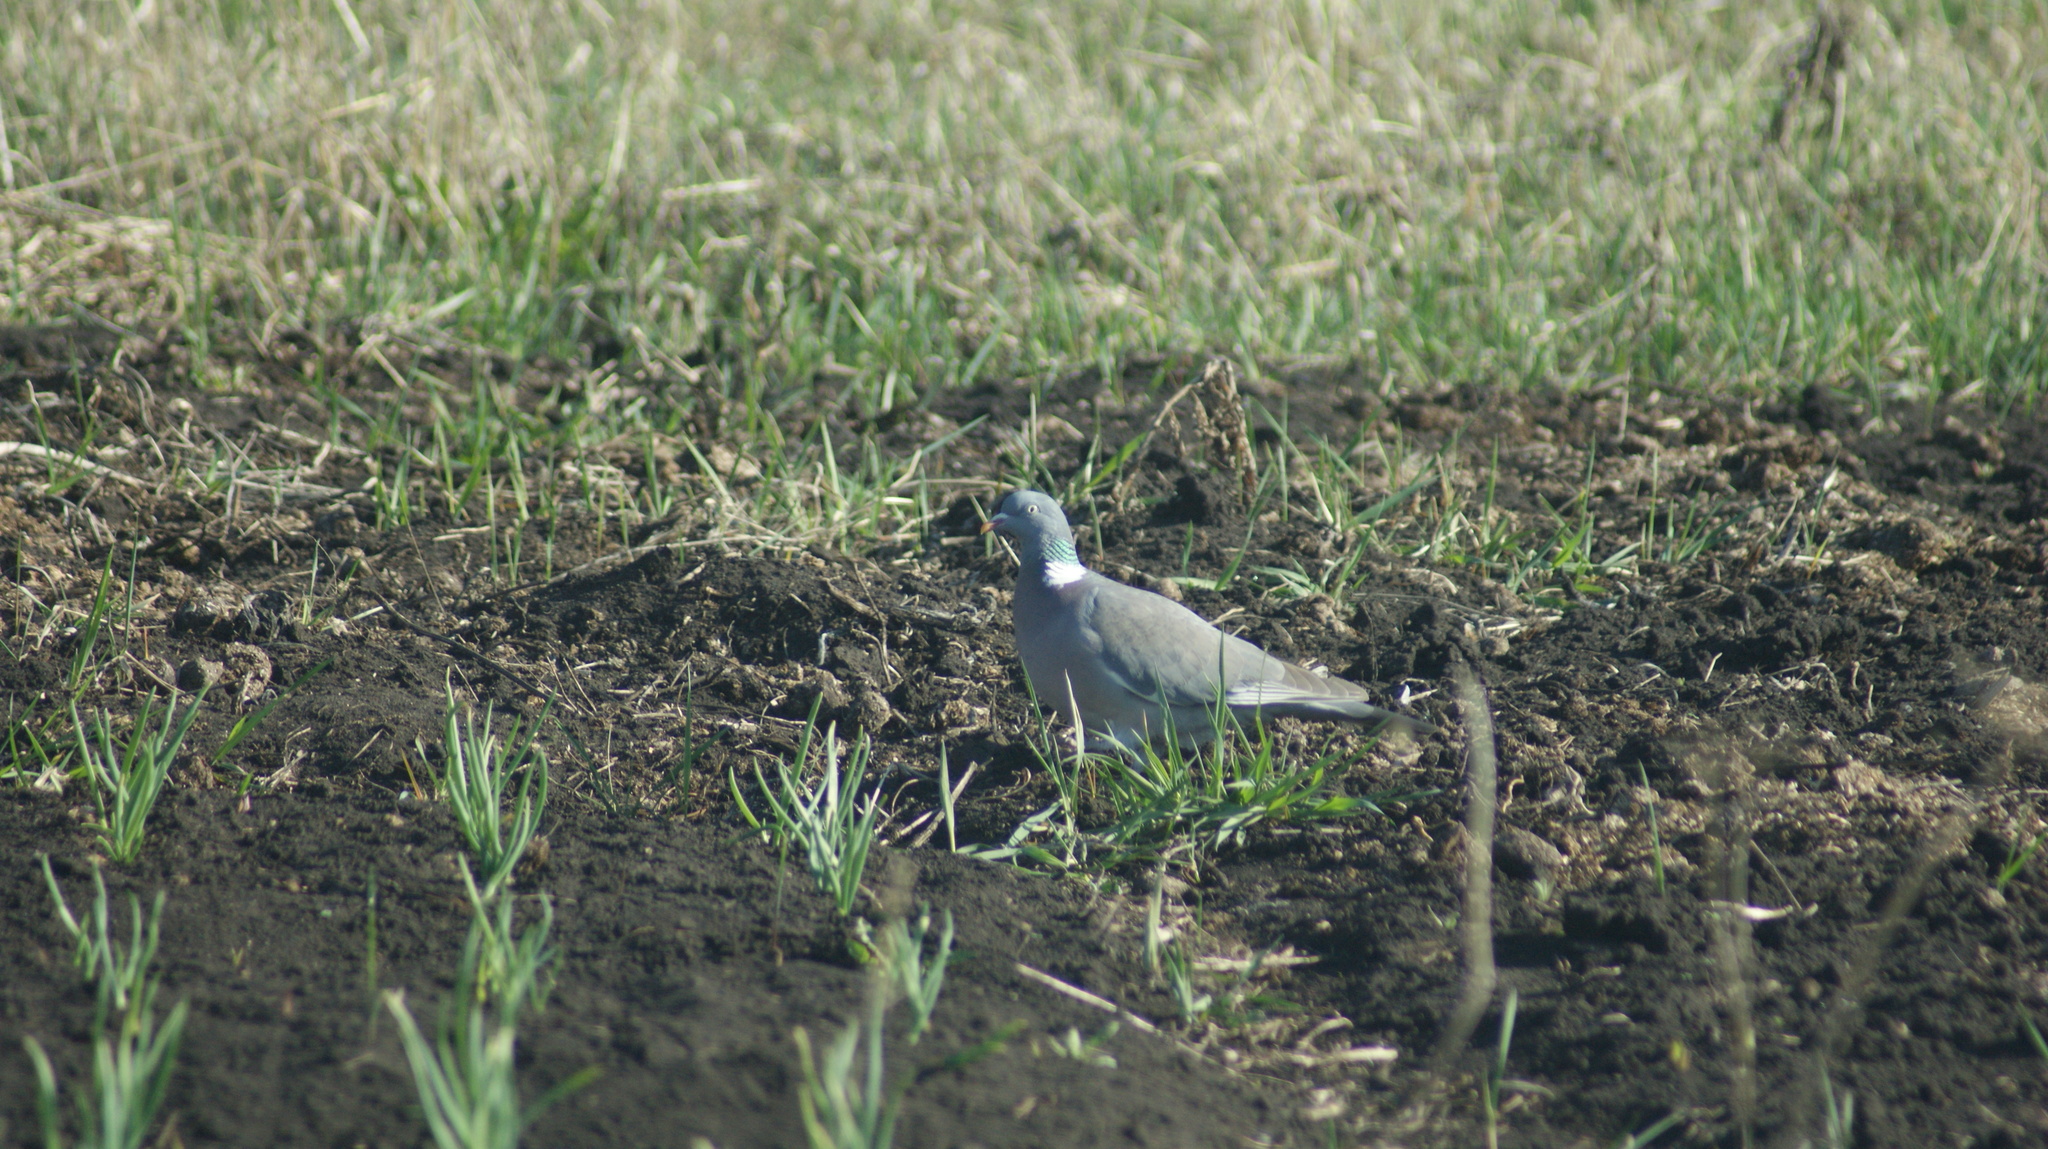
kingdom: Animalia
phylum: Chordata
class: Aves
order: Columbiformes
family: Columbidae
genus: Columba
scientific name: Columba palumbus
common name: Common wood pigeon
